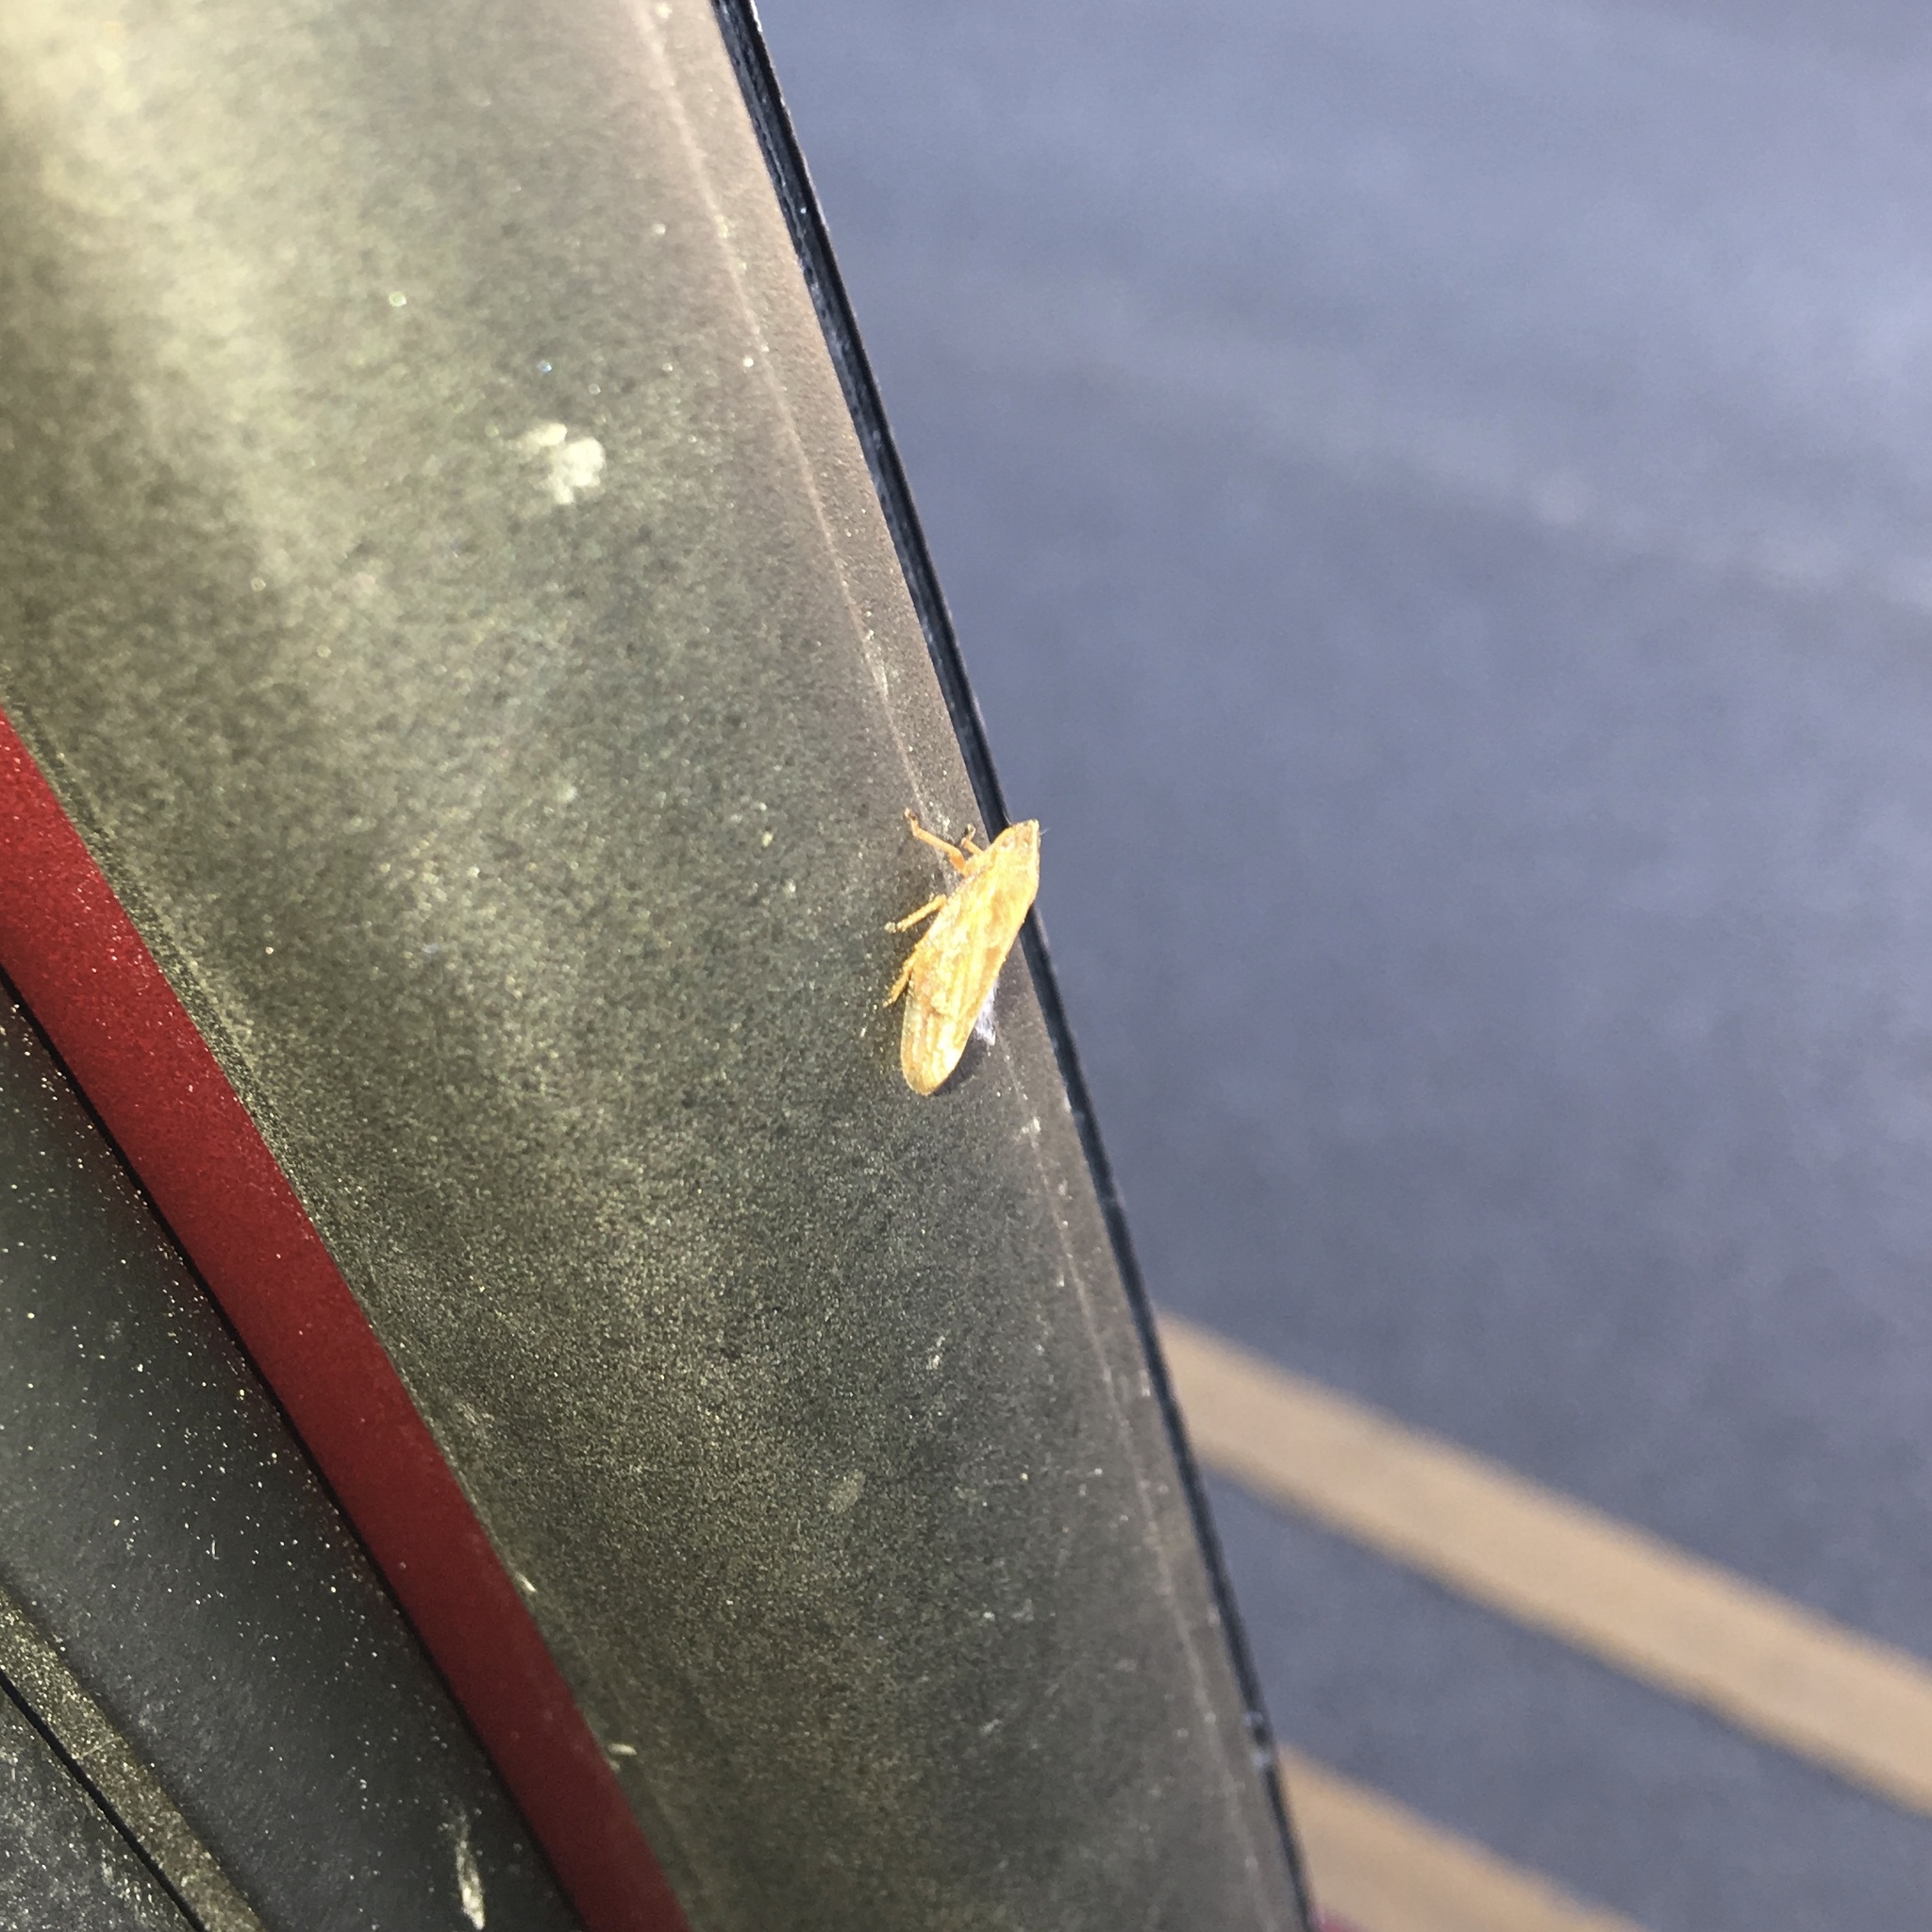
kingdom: Animalia
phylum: Arthropoda
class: Insecta
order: Hemiptera
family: Aphrophoridae
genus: Philaenus
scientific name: Philaenus spumarius
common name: Meadow spittlebug
